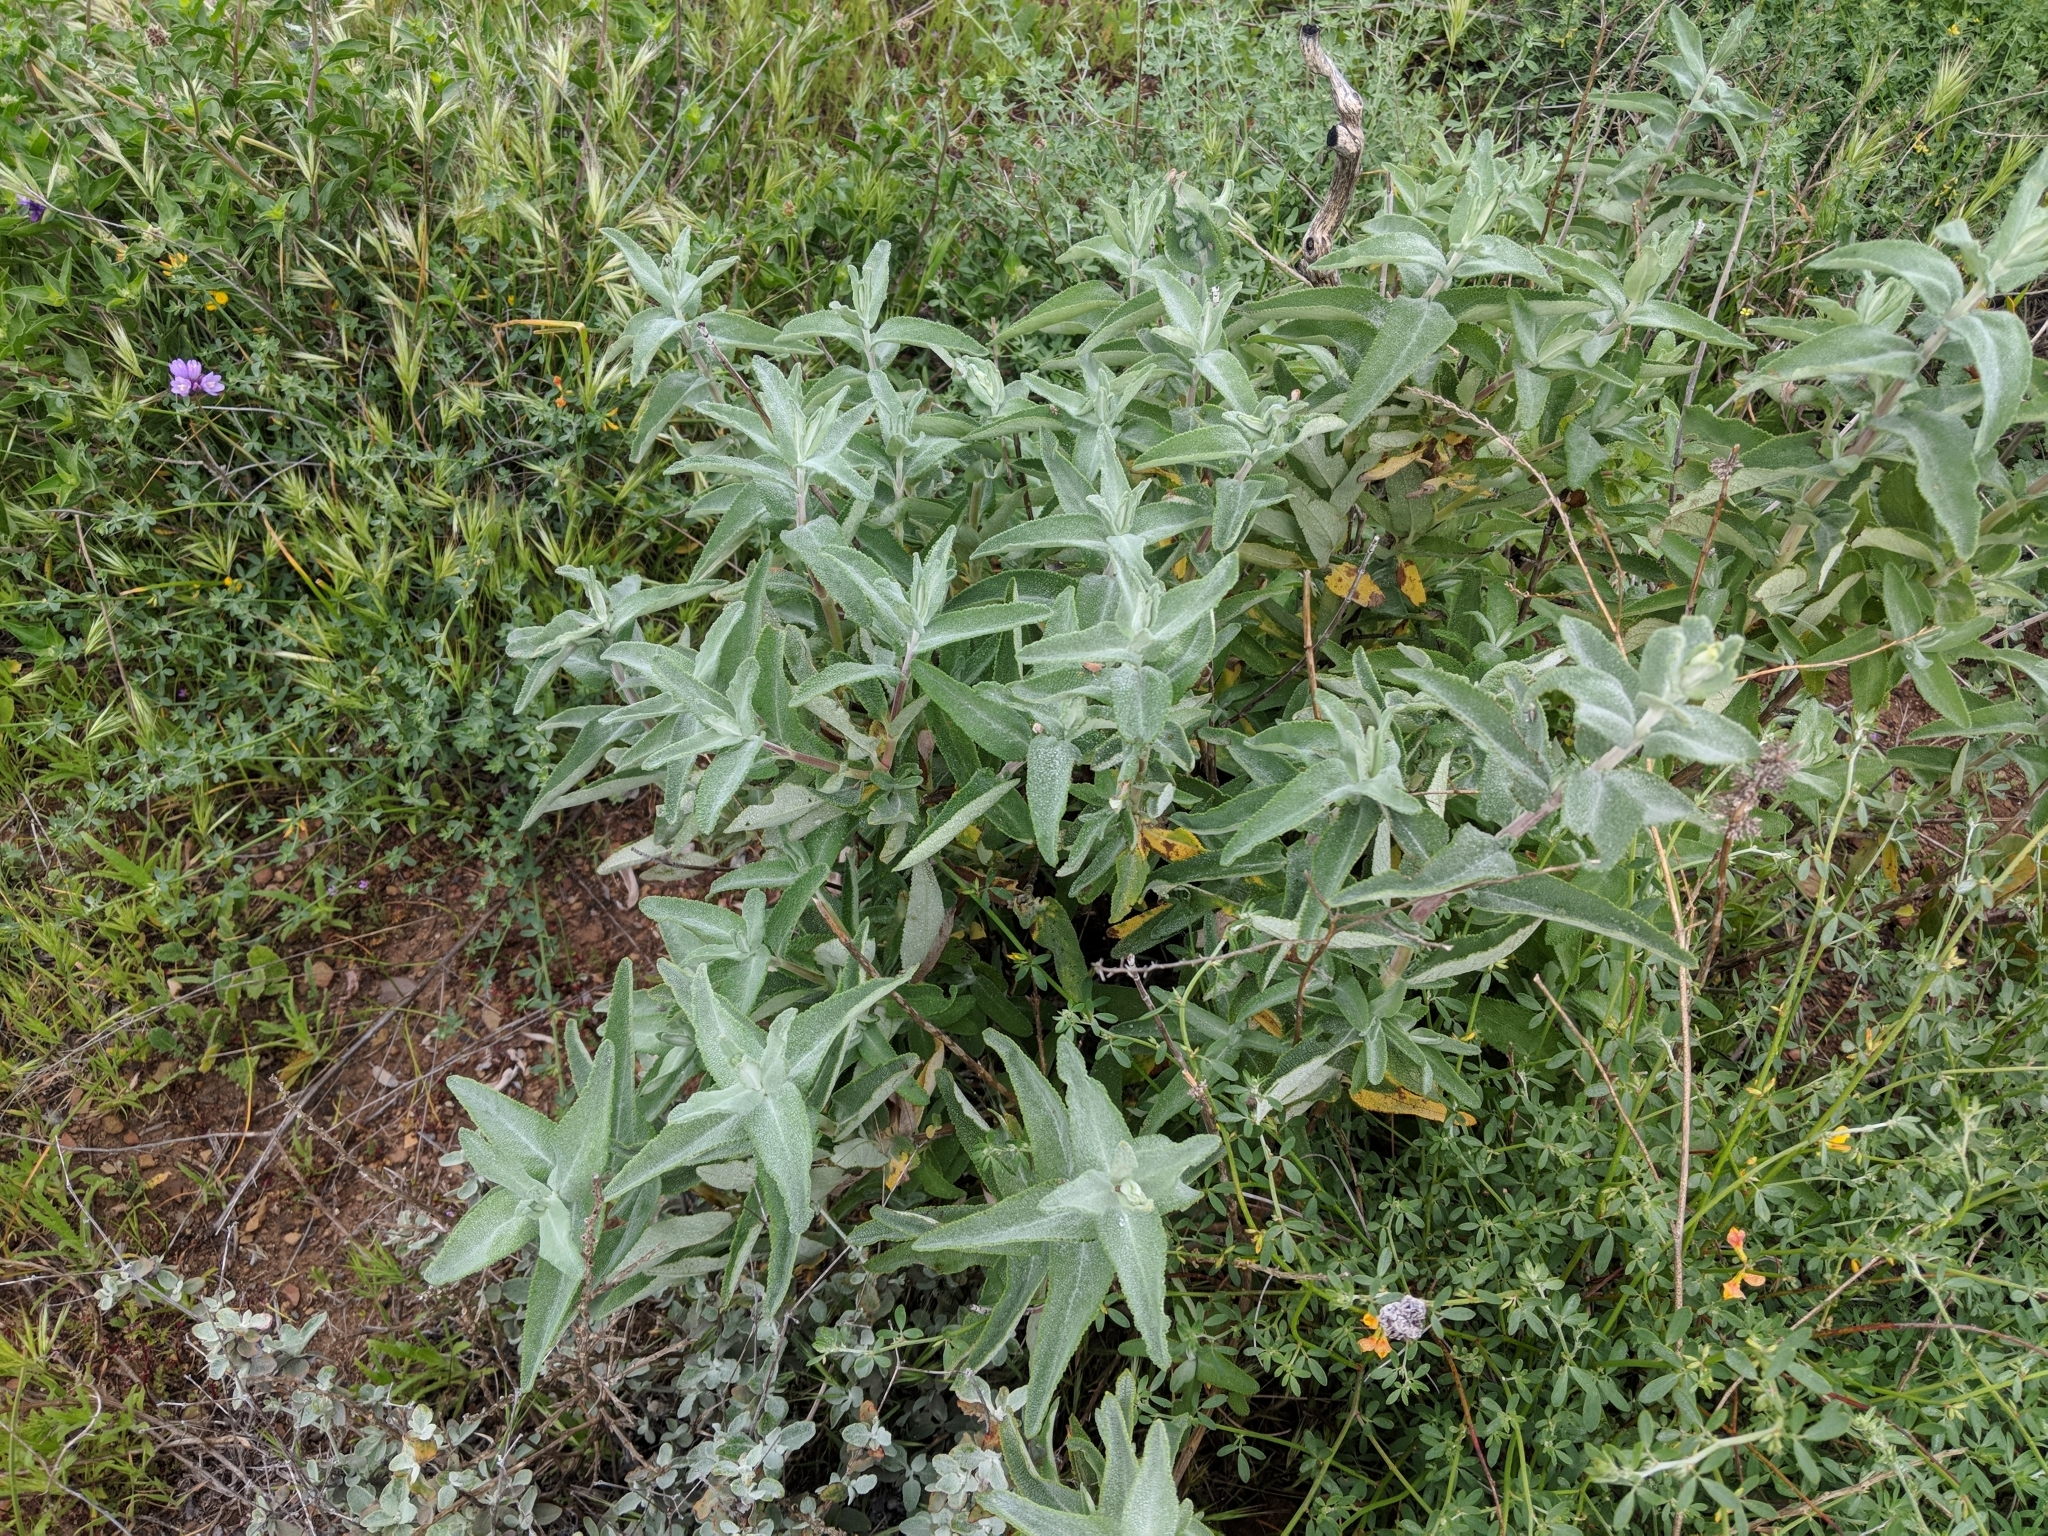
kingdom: Plantae
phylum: Tracheophyta
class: Magnoliopsida
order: Lamiales
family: Lamiaceae
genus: Salvia
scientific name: Salvia leucophylla
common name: Purple sage
